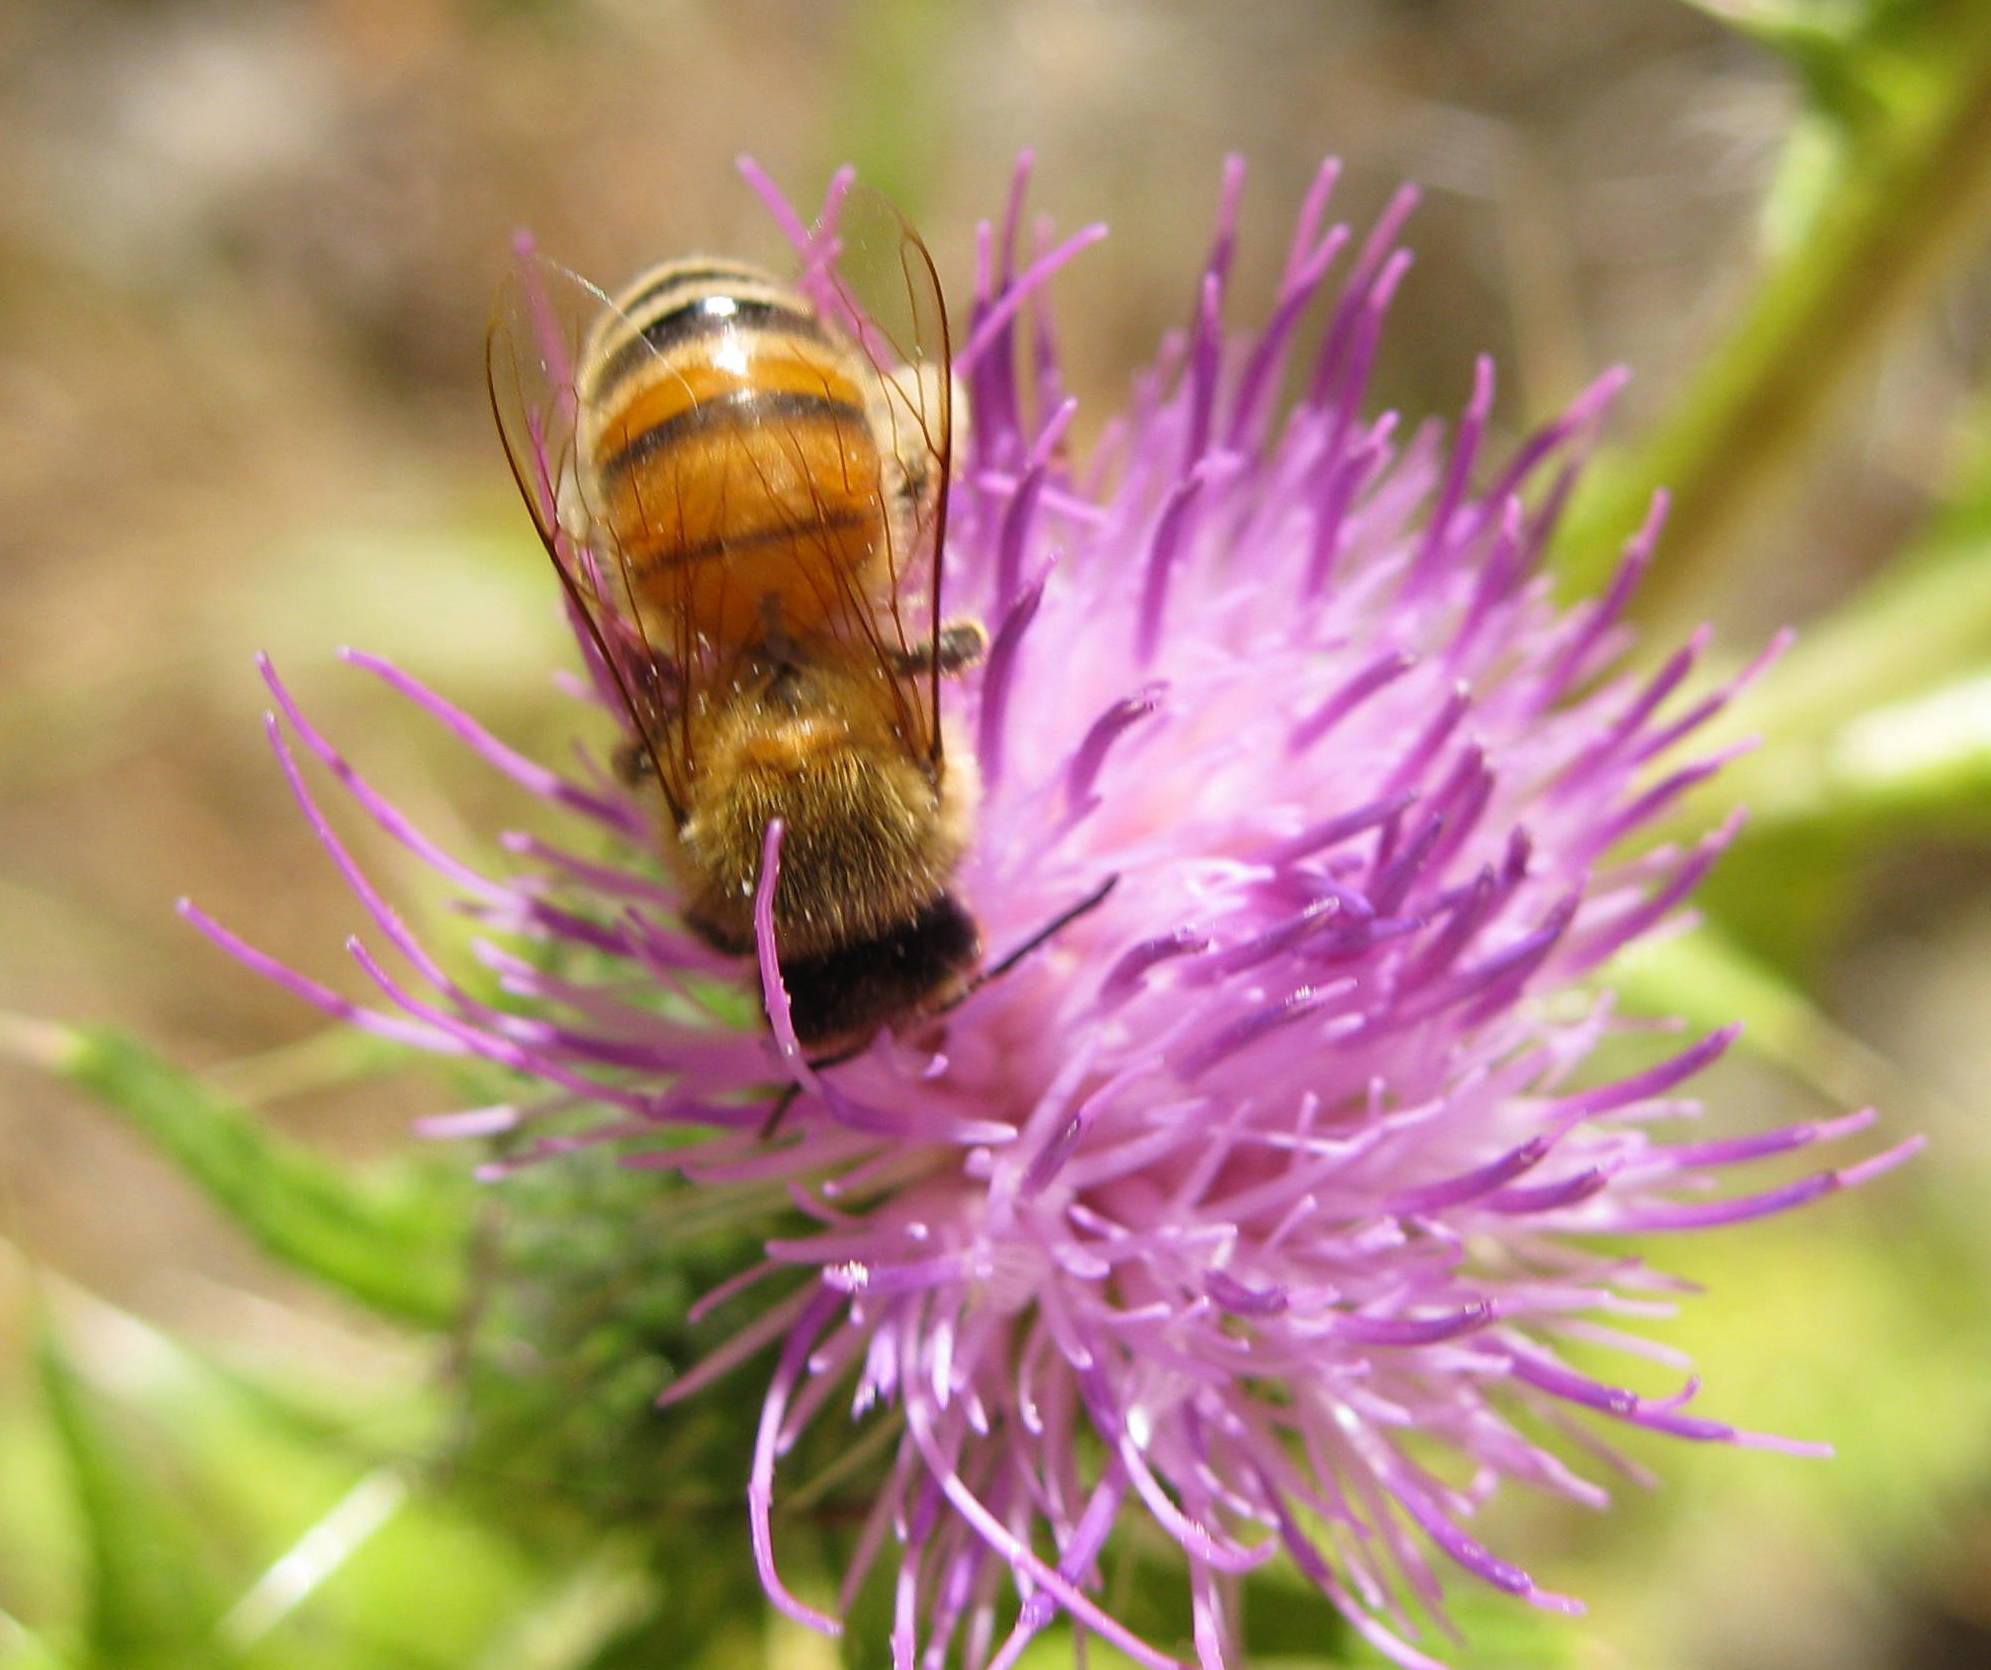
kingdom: Plantae
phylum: Tracheophyta
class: Magnoliopsida
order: Asterales
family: Asteraceae
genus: Cirsium
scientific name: Cirsium vulgare
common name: Bull thistle
